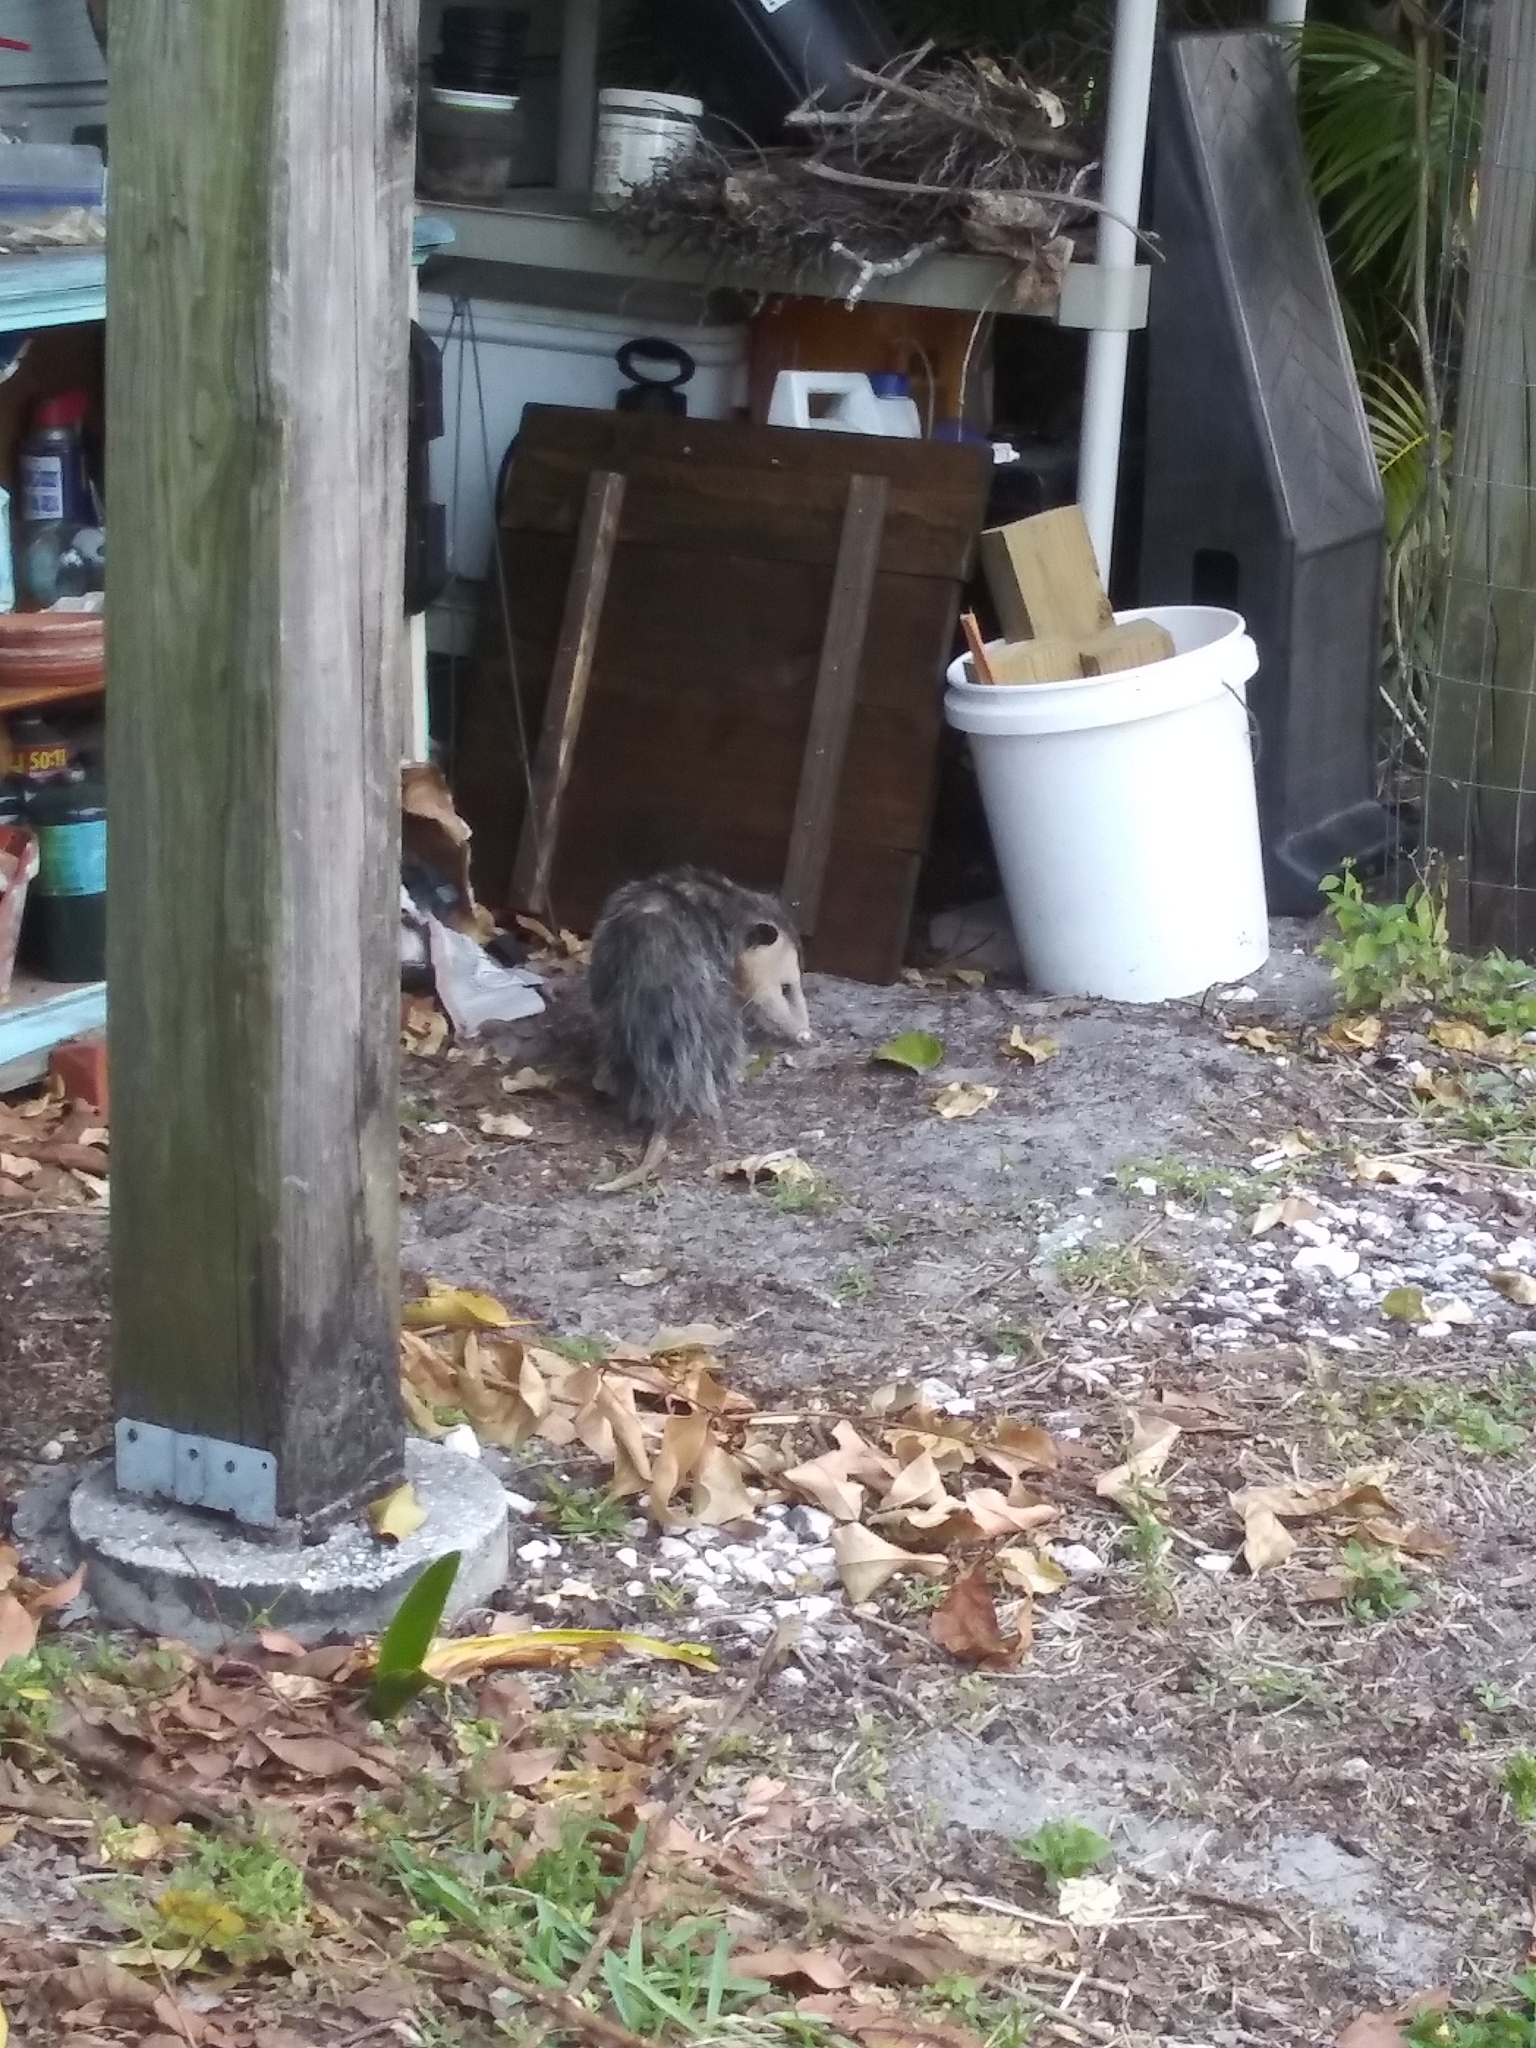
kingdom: Animalia
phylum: Chordata
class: Mammalia
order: Didelphimorphia
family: Didelphidae
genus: Didelphis
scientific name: Didelphis virginiana
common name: Virginia opossum
